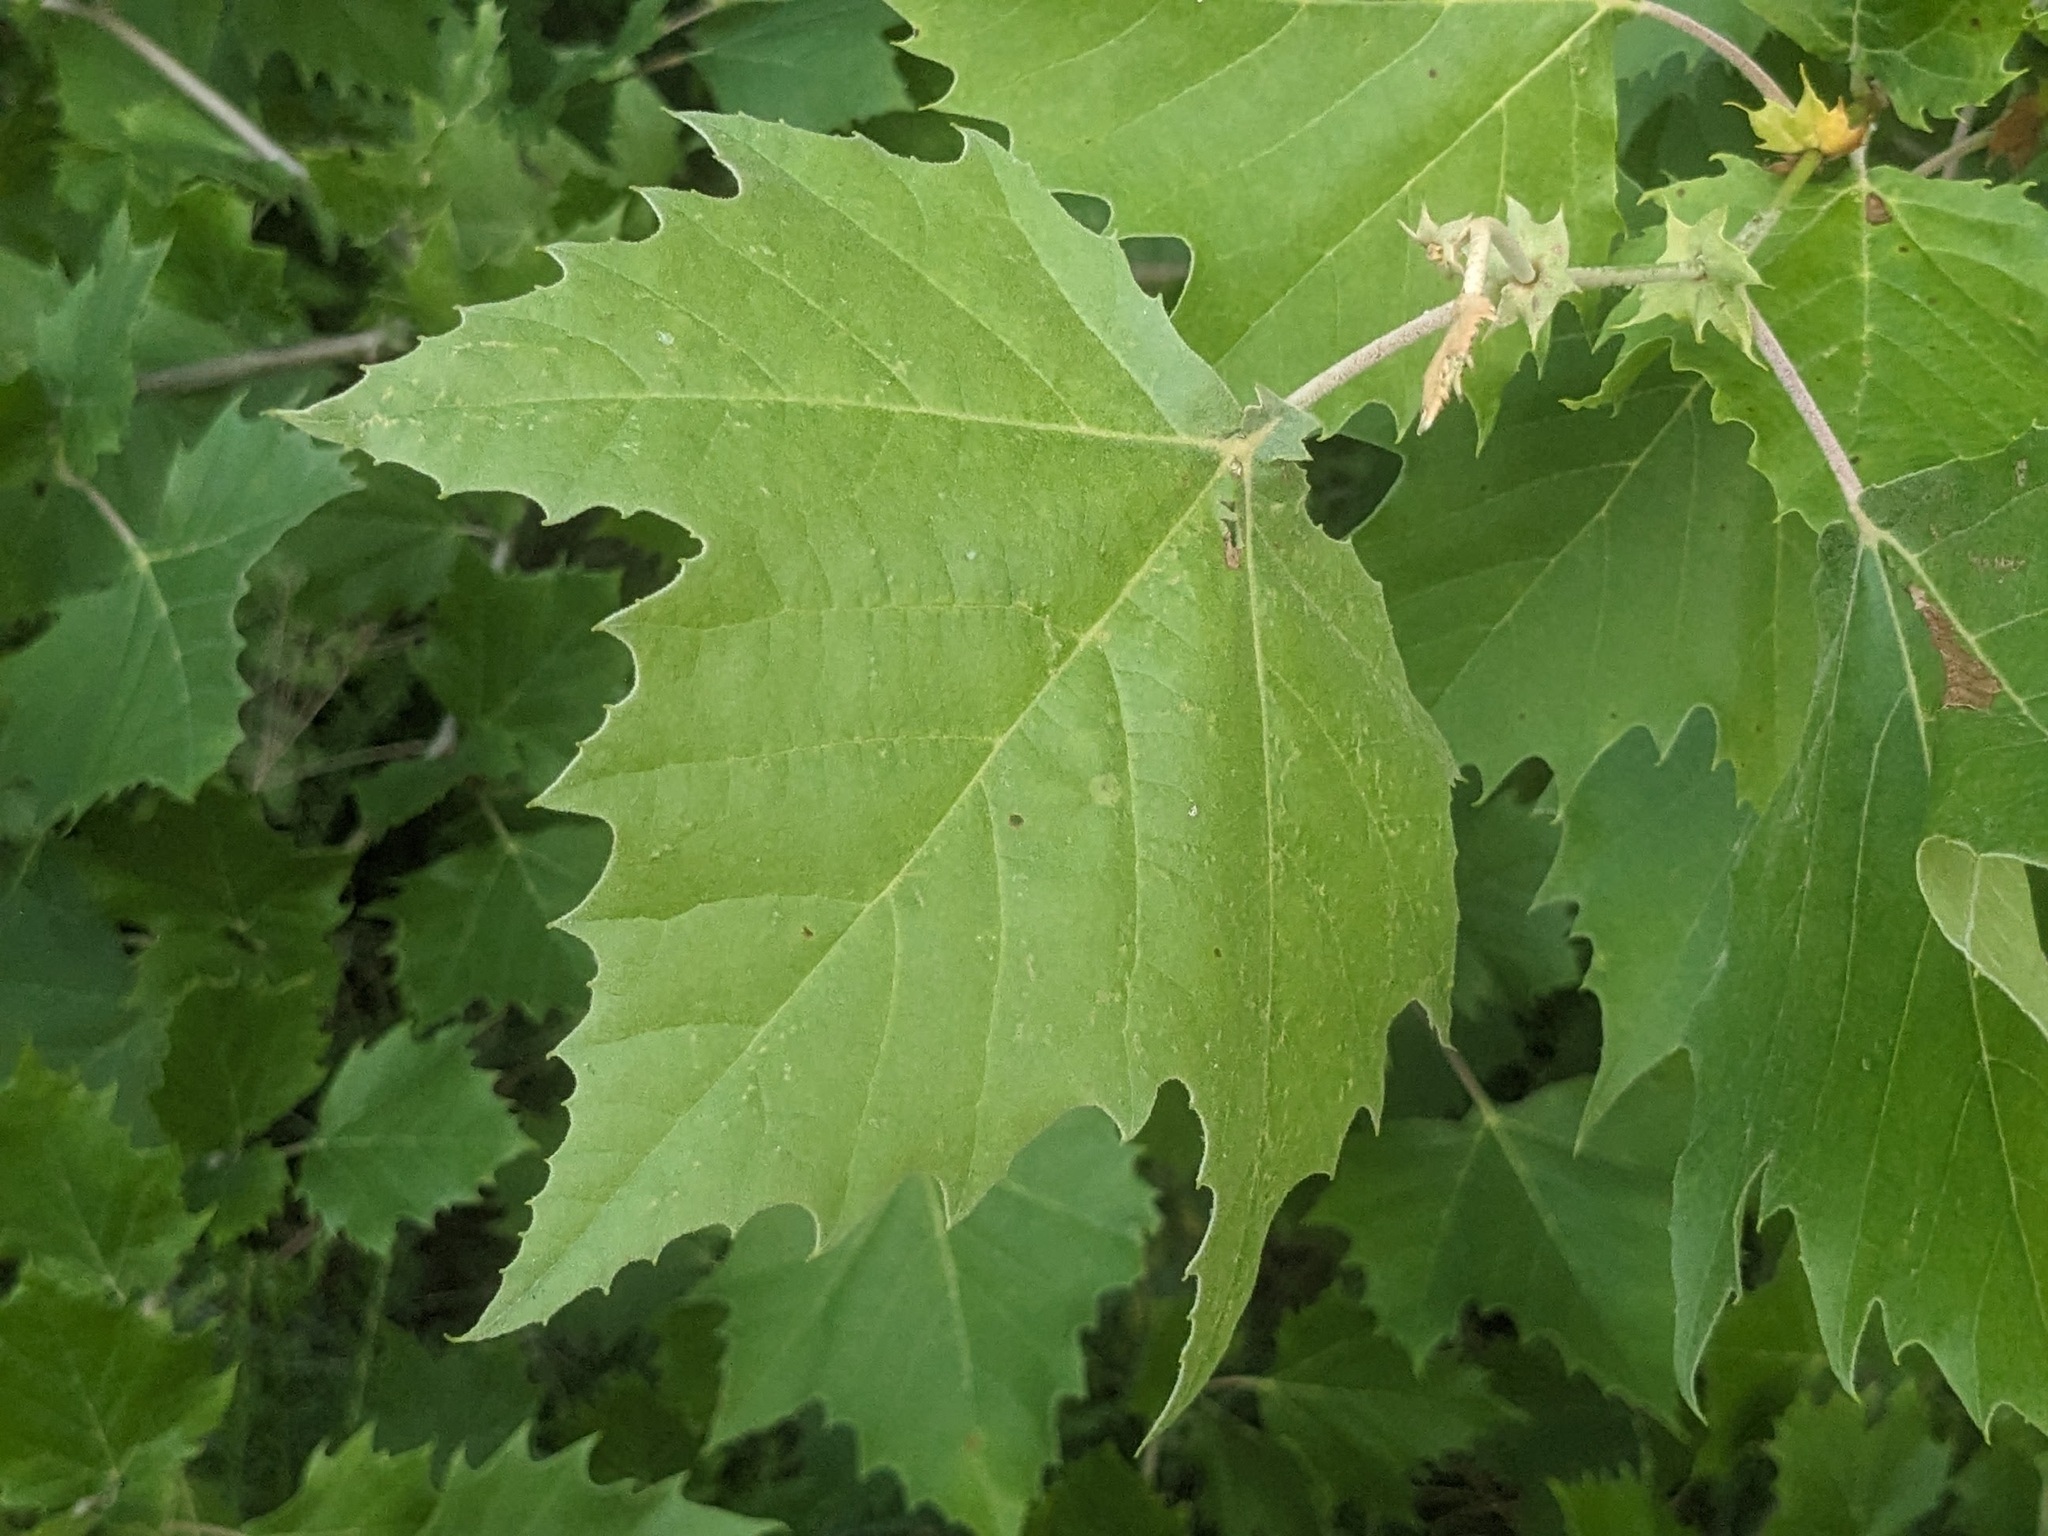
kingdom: Plantae
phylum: Tracheophyta
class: Magnoliopsida
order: Proteales
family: Platanaceae
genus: Platanus
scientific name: Platanus occidentalis
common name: American sycamore
